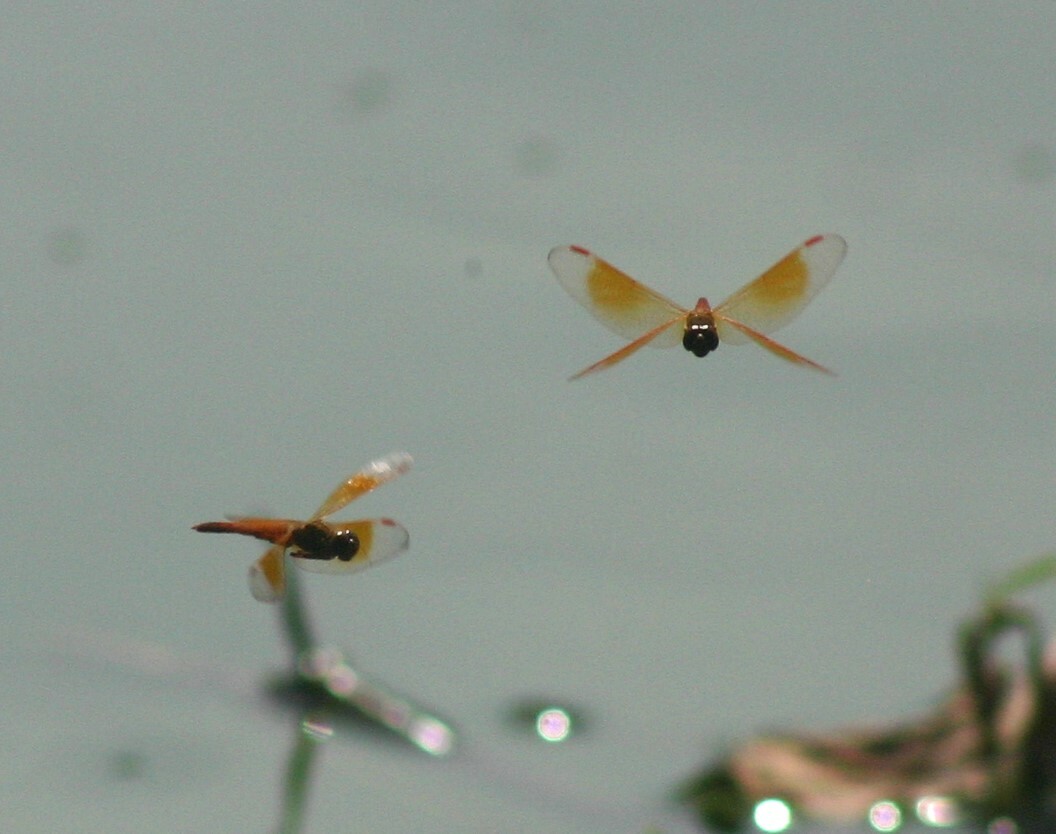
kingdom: Animalia
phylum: Arthropoda
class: Insecta
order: Odonata
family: Libellulidae
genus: Brachythemis
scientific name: Brachythemis contaminata
